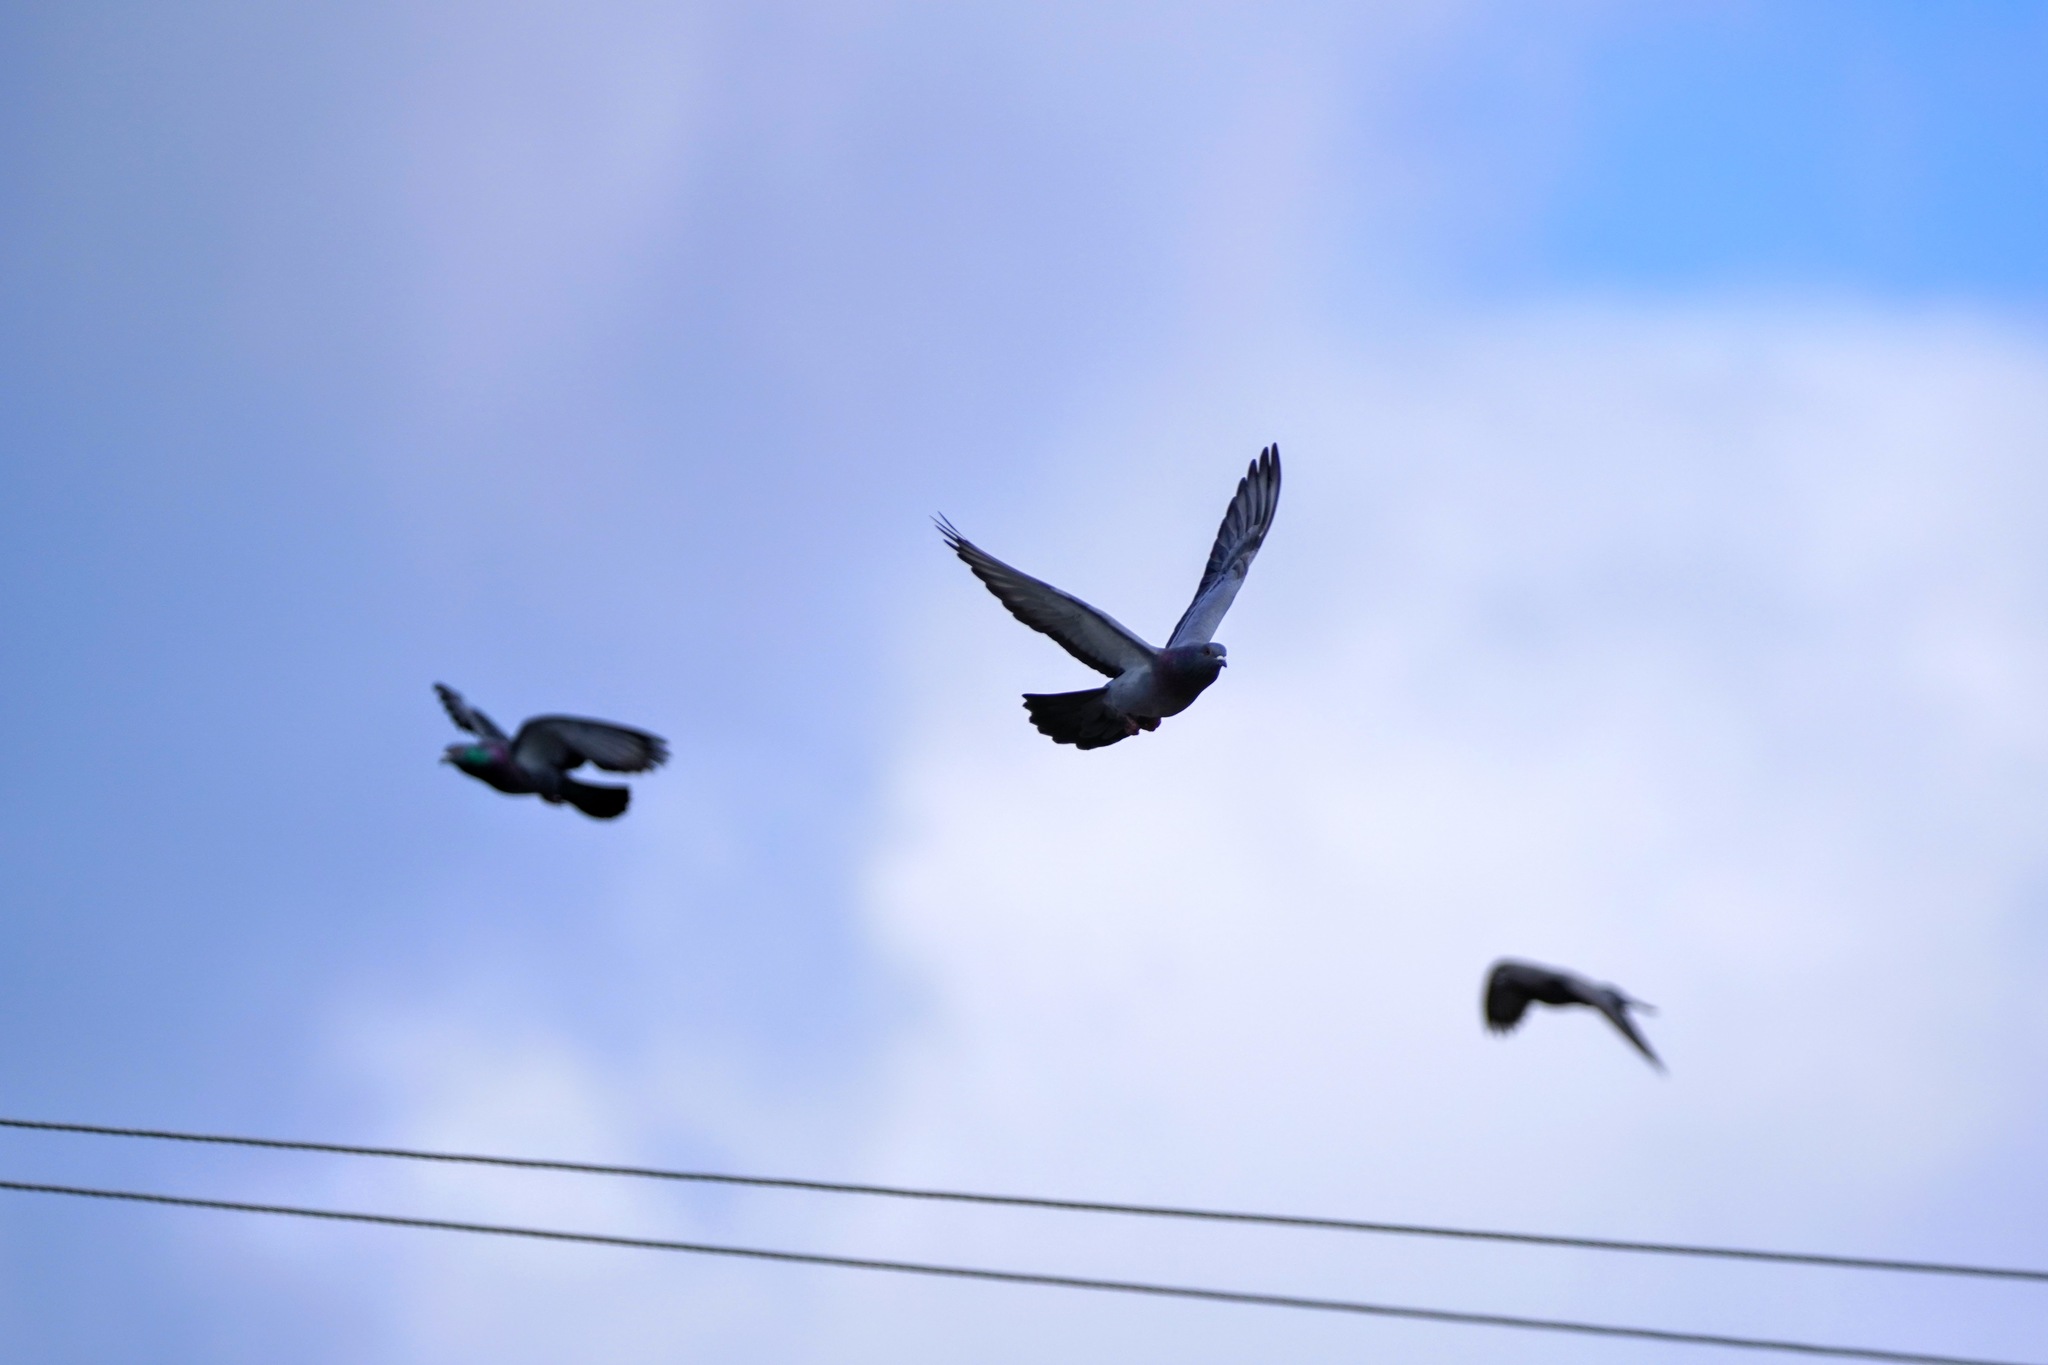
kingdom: Animalia
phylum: Chordata
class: Aves
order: Columbiformes
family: Columbidae
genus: Columba
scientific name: Columba livia
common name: Rock pigeon
